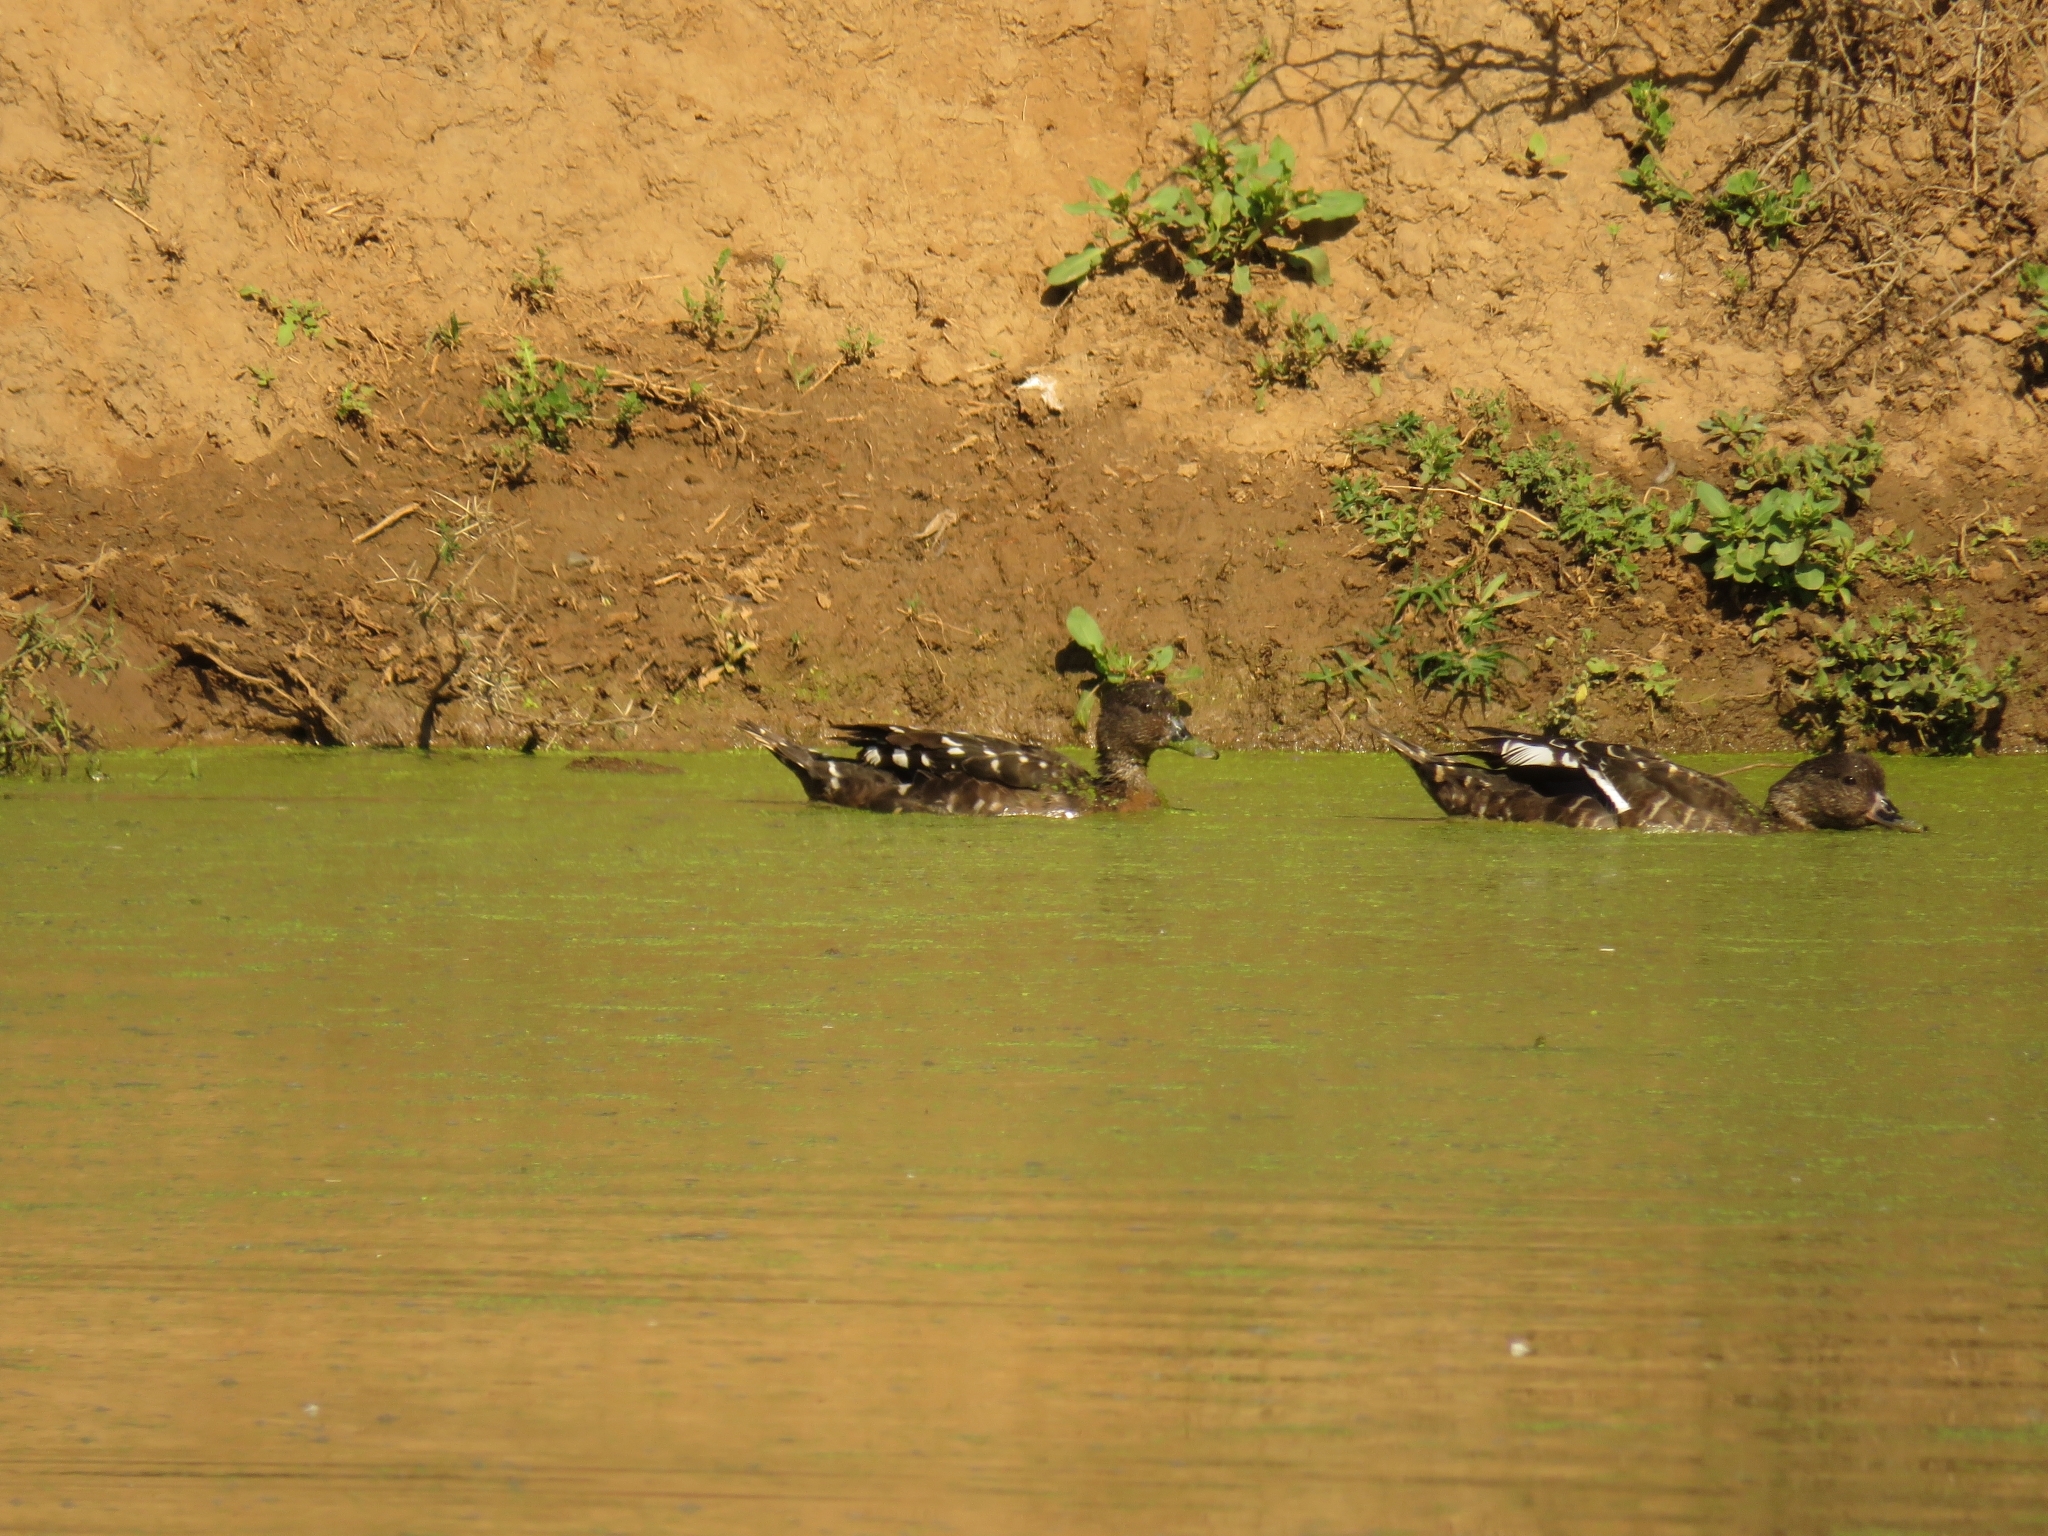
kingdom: Animalia
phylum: Chordata
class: Aves
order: Anseriformes
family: Anatidae
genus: Anas
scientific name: Anas sparsa
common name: African black duck
